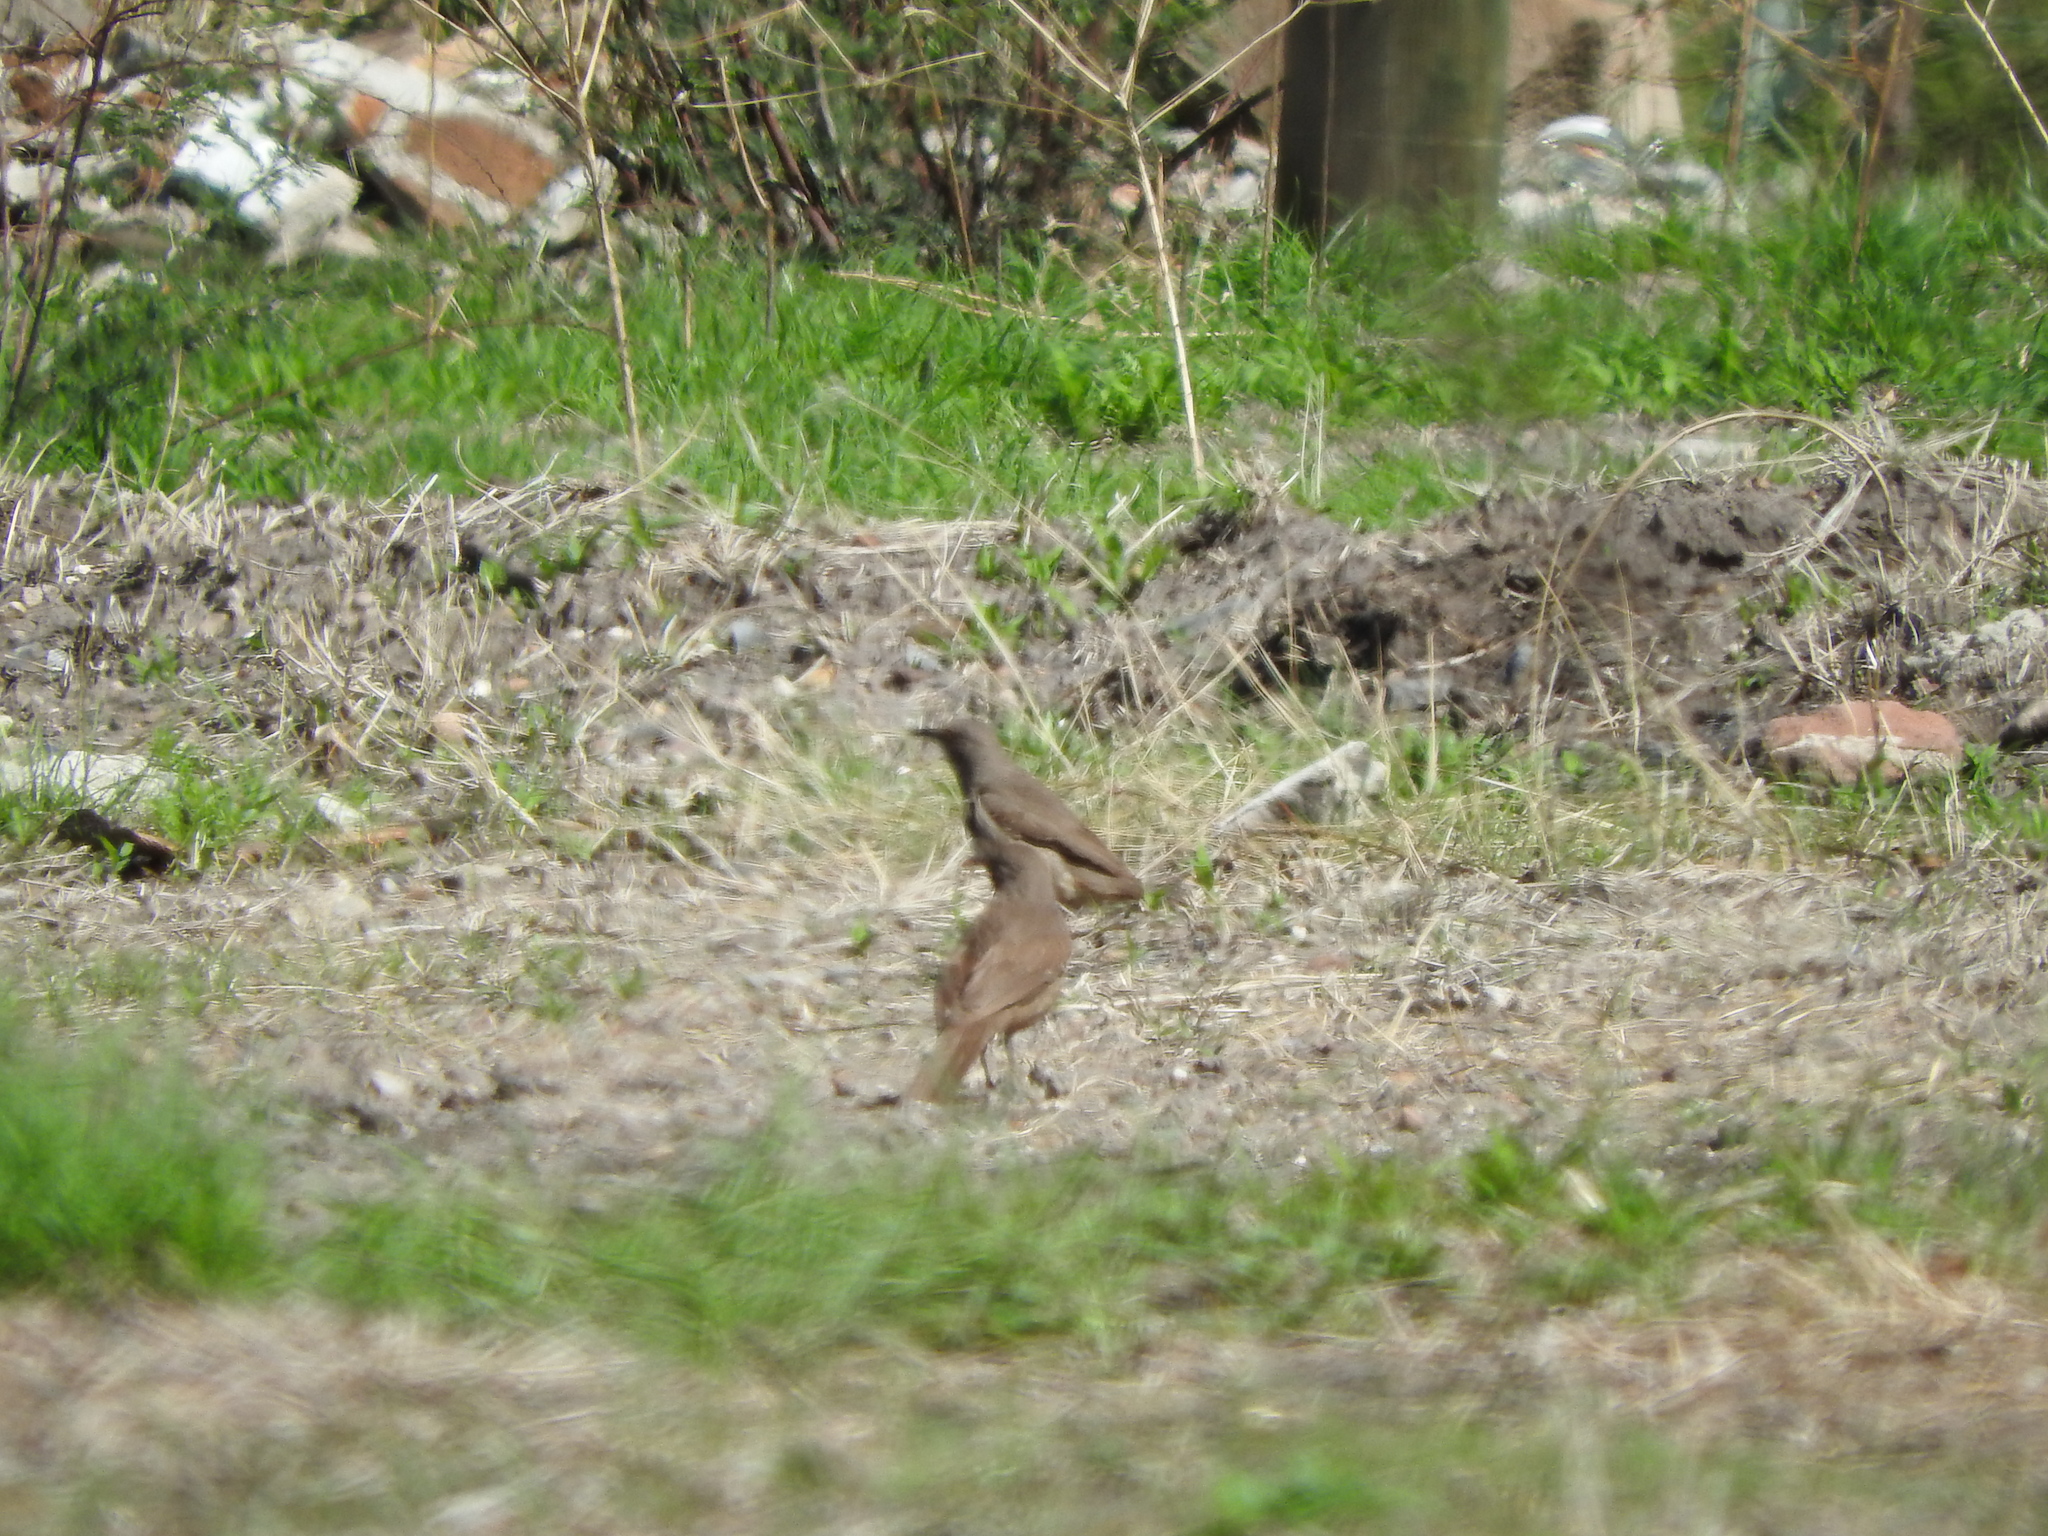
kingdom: Animalia
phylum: Chordata
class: Aves
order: Passeriformes
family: Mimidae
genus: Toxostoma
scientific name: Toxostoma curvirostre
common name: Curve-billed thrasher
